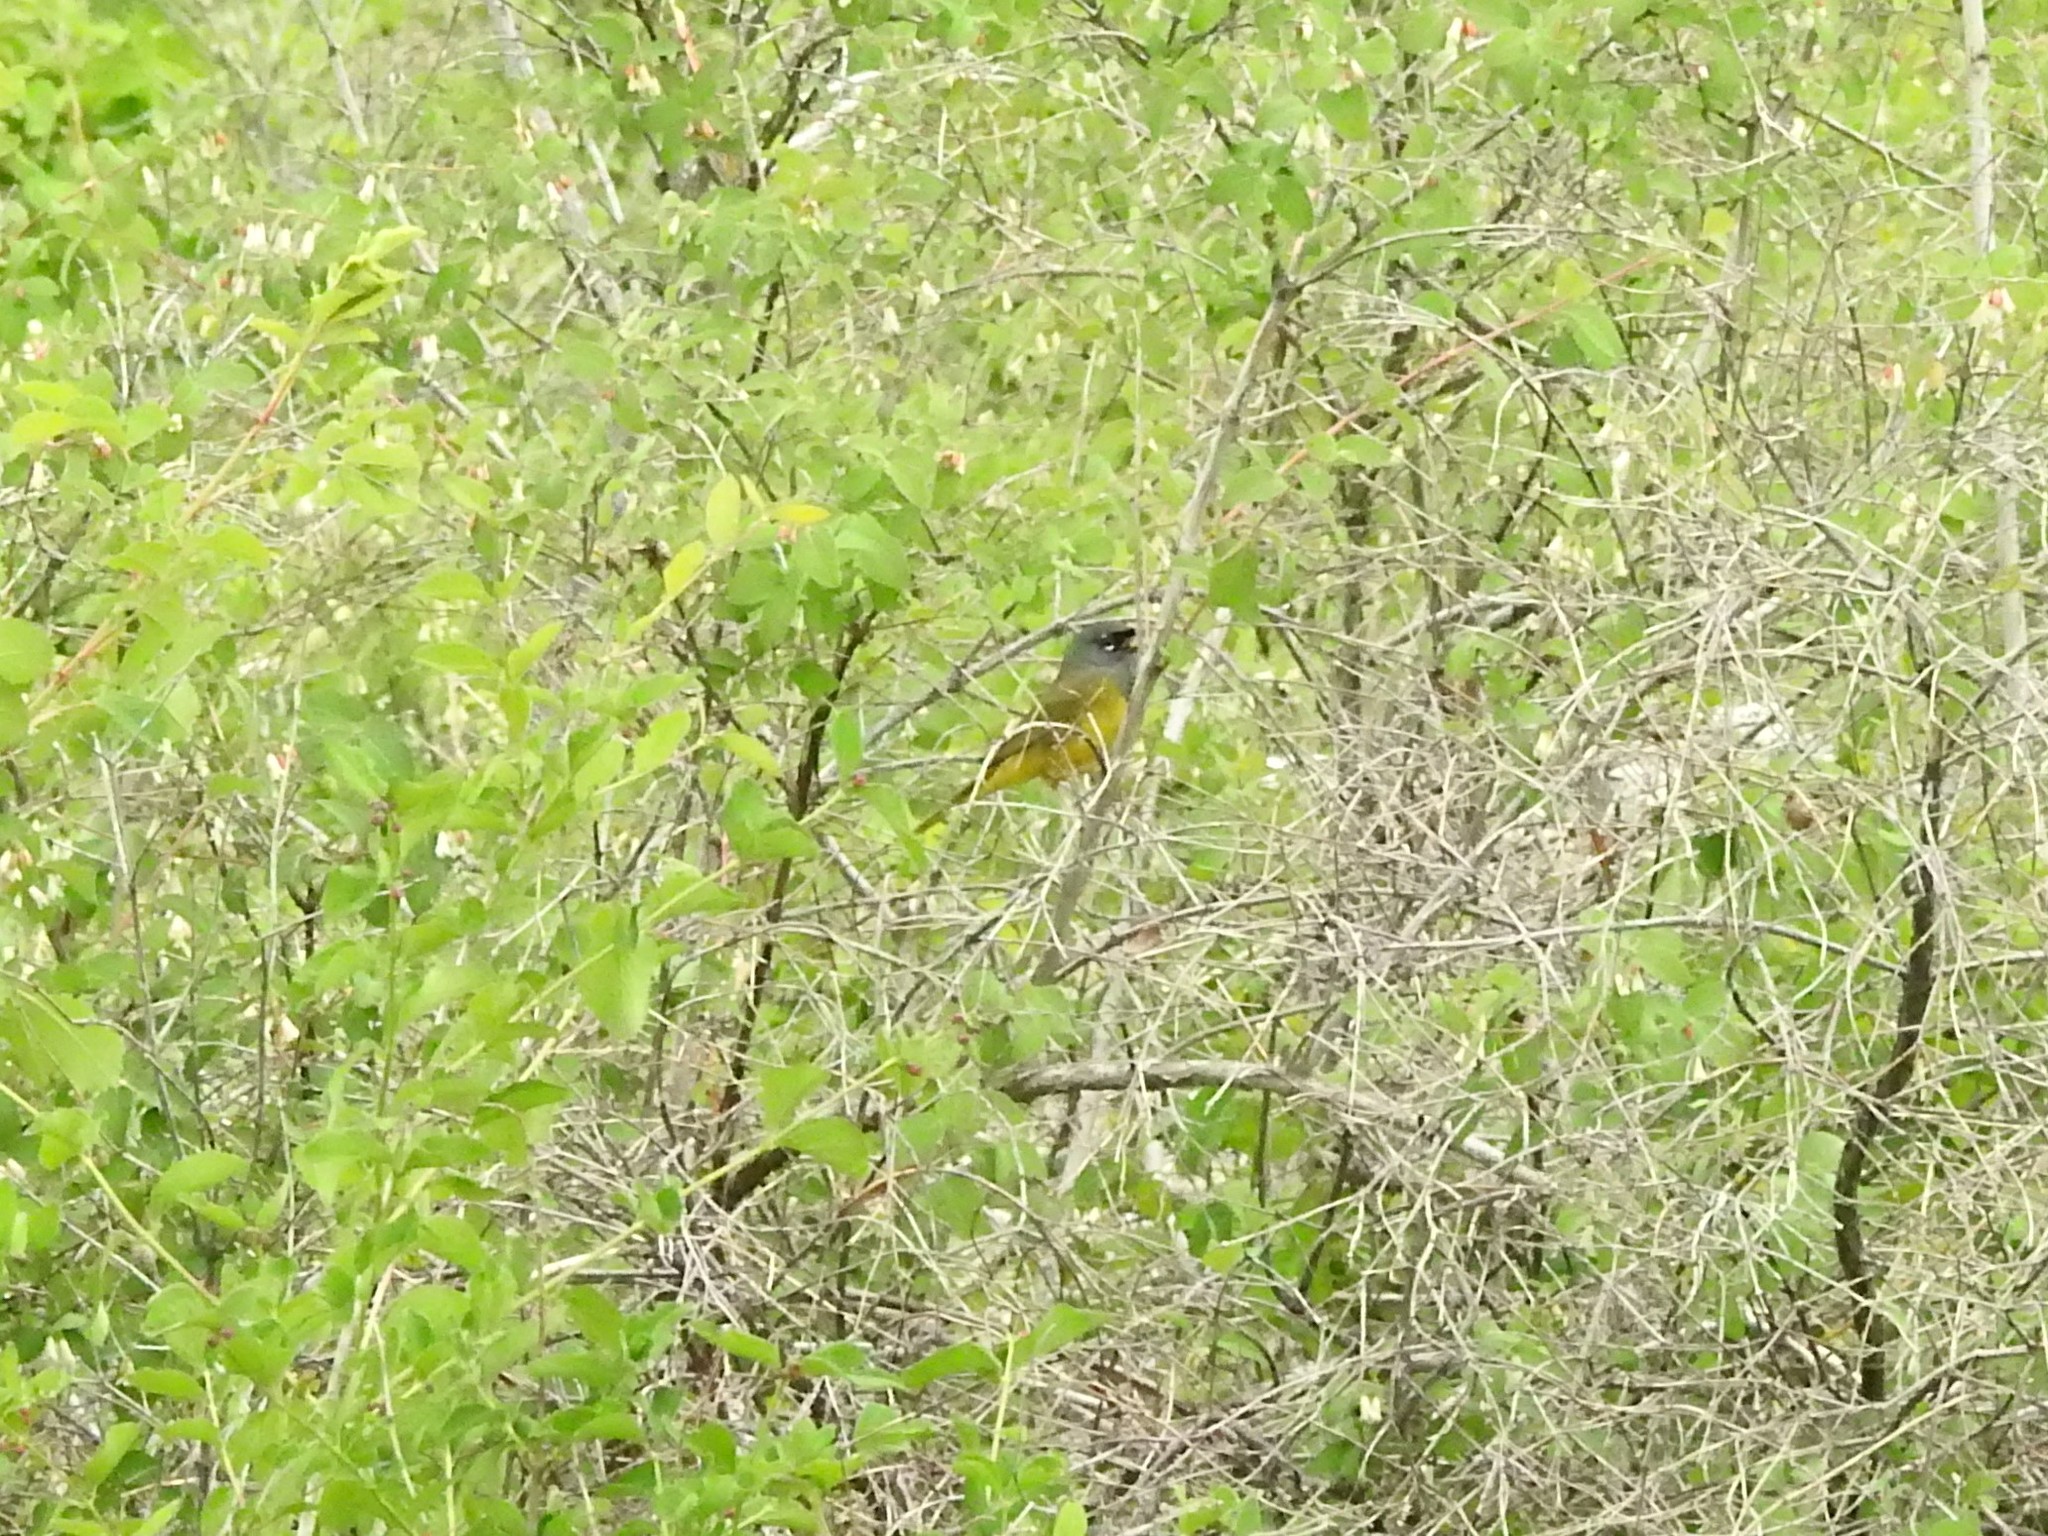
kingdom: Animalia
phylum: Chordata
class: Aves
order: Passeriformes
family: Parulidae
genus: Geothlypis
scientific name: Geothlypis tolmiei
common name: Macgillivray's warbler
